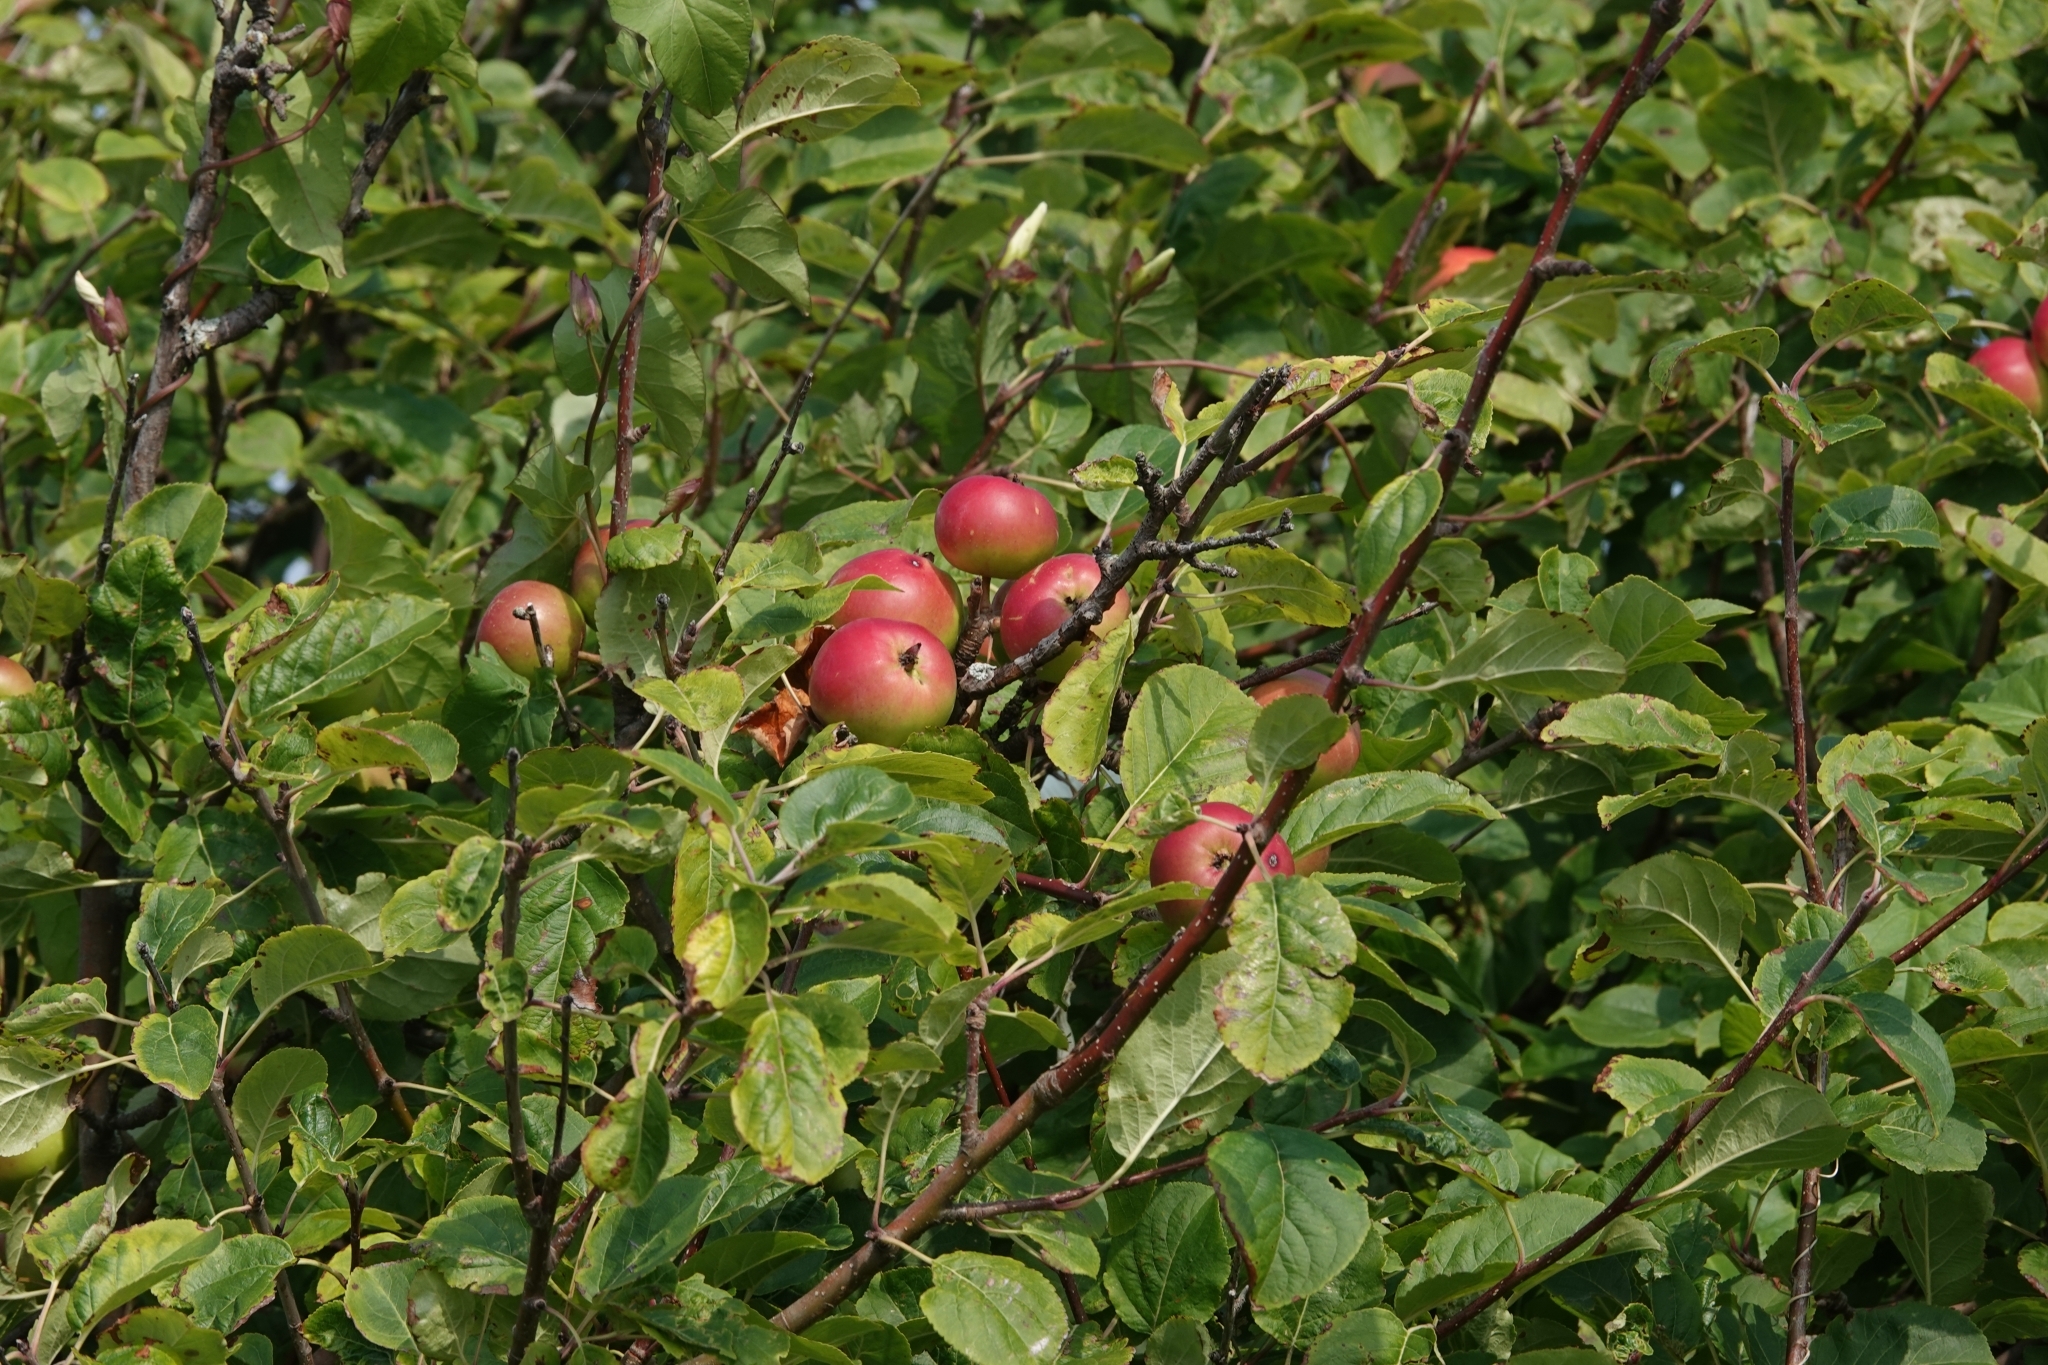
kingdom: Plantae
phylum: Tracheophyta
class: Magnoliopsida
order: Rosales
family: Rosaceae
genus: Malus
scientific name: Malus domestica
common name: Apple
